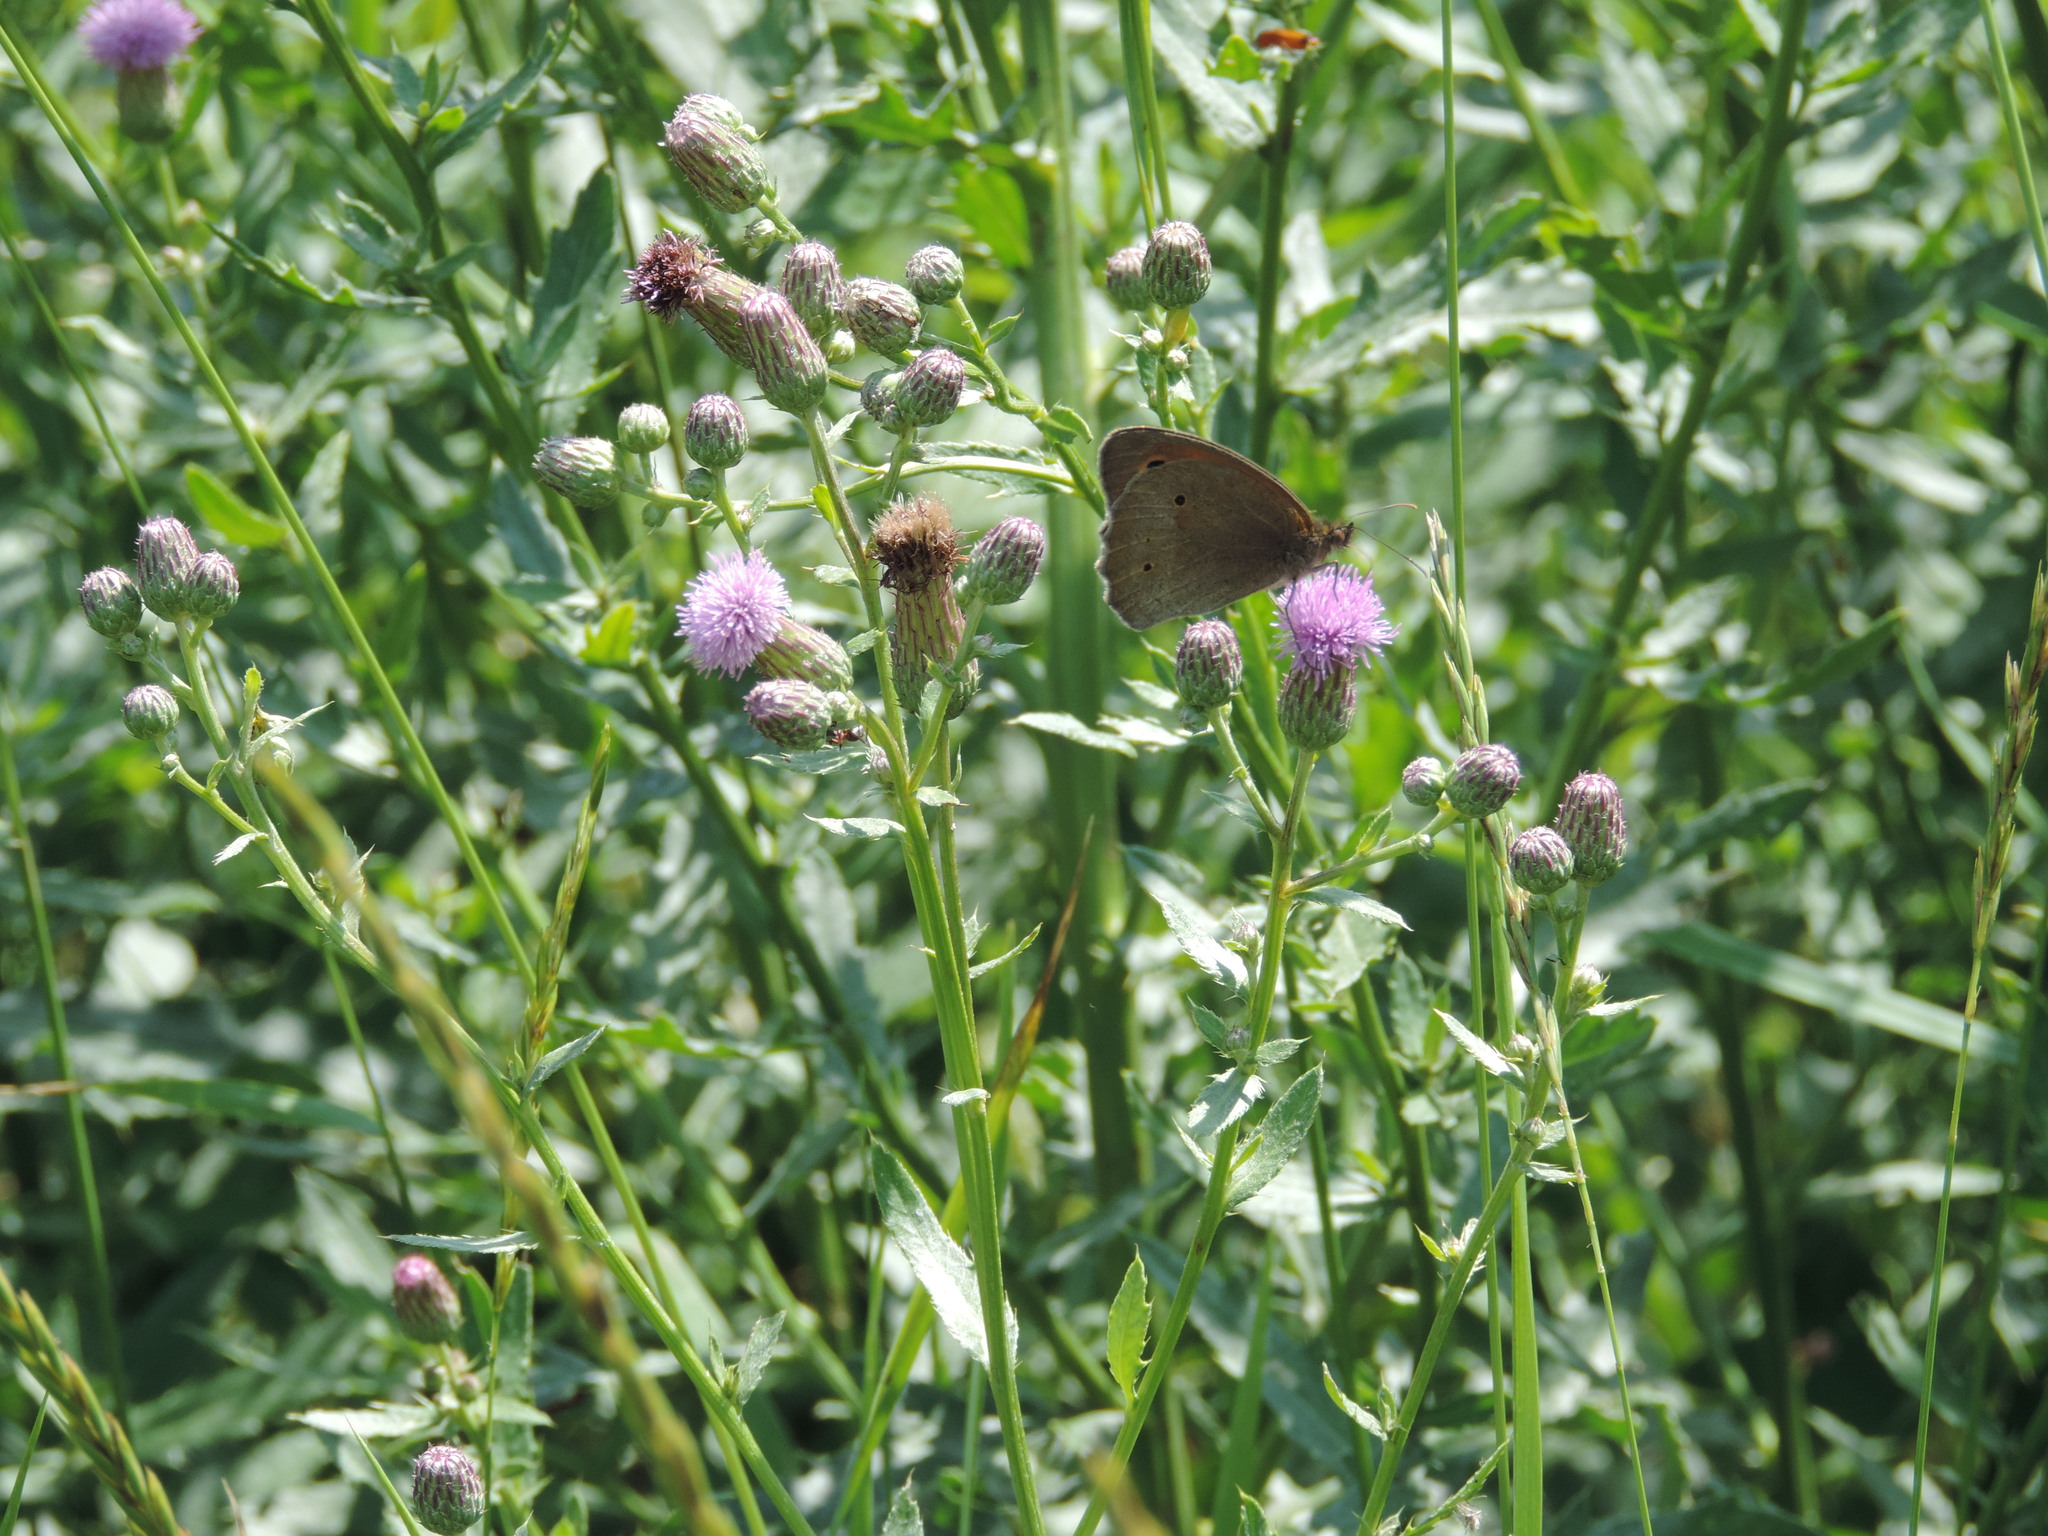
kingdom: Animalia
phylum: Arthropoda
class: Insecta
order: Lepidoptera
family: Nymphalidae
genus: Maniola
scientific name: Maniola jurtina
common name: Meadow brown
